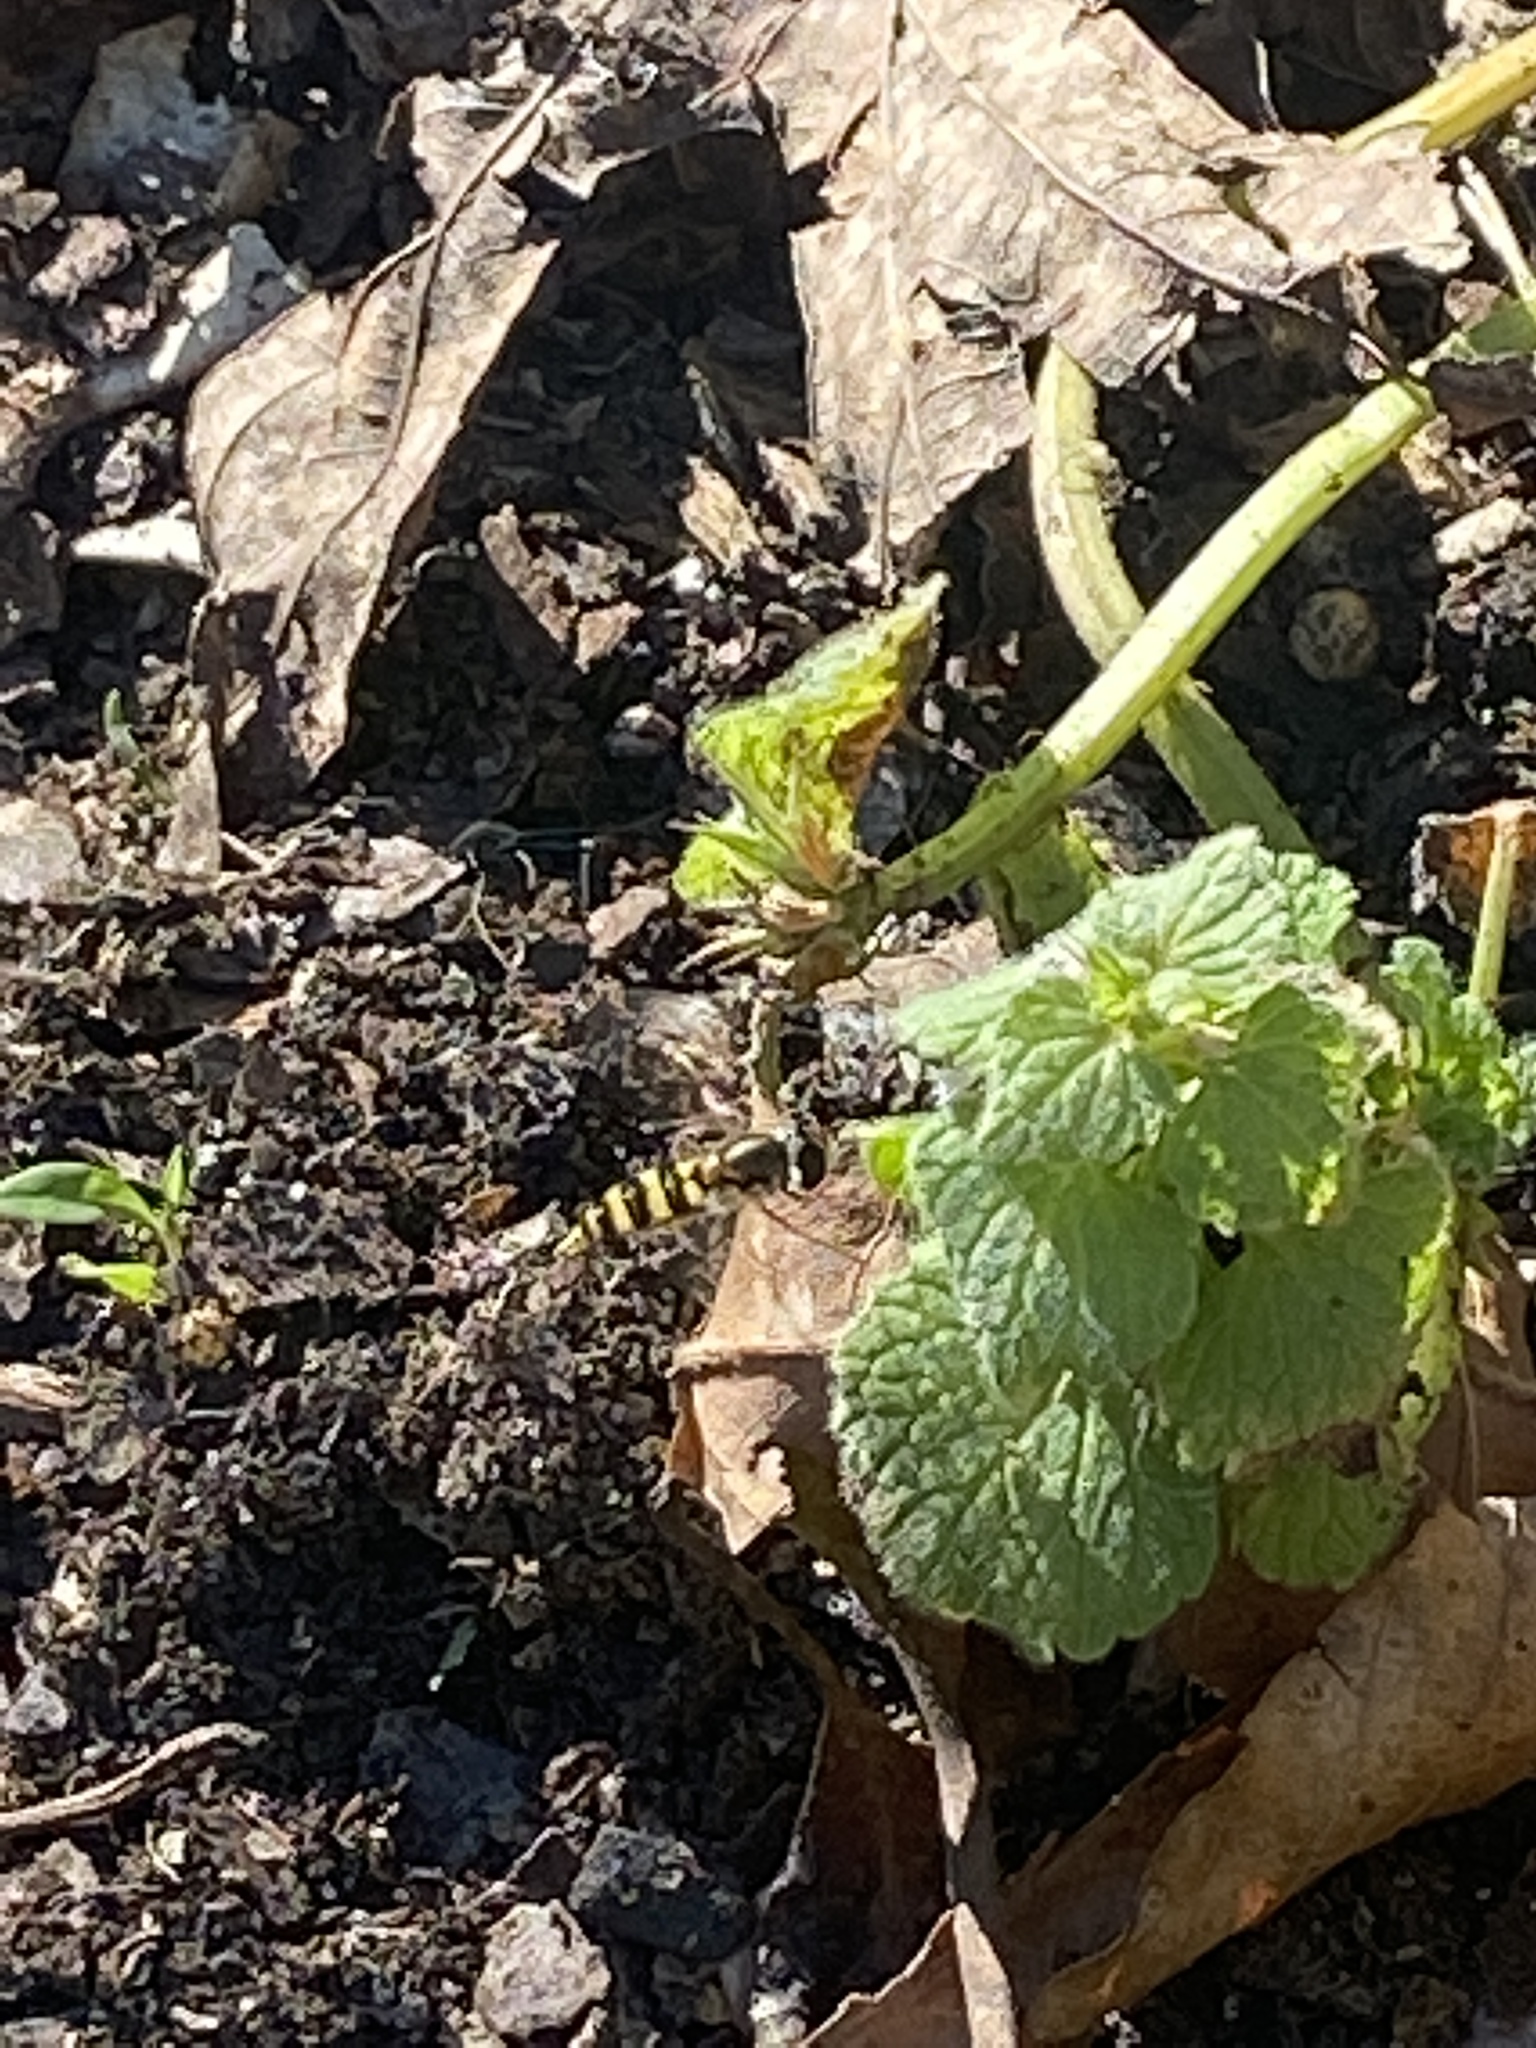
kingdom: Animalia
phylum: Arthropoda
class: Insecta
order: Diptera
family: Syrphidae
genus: Eupeodes
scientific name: Eupeodes
